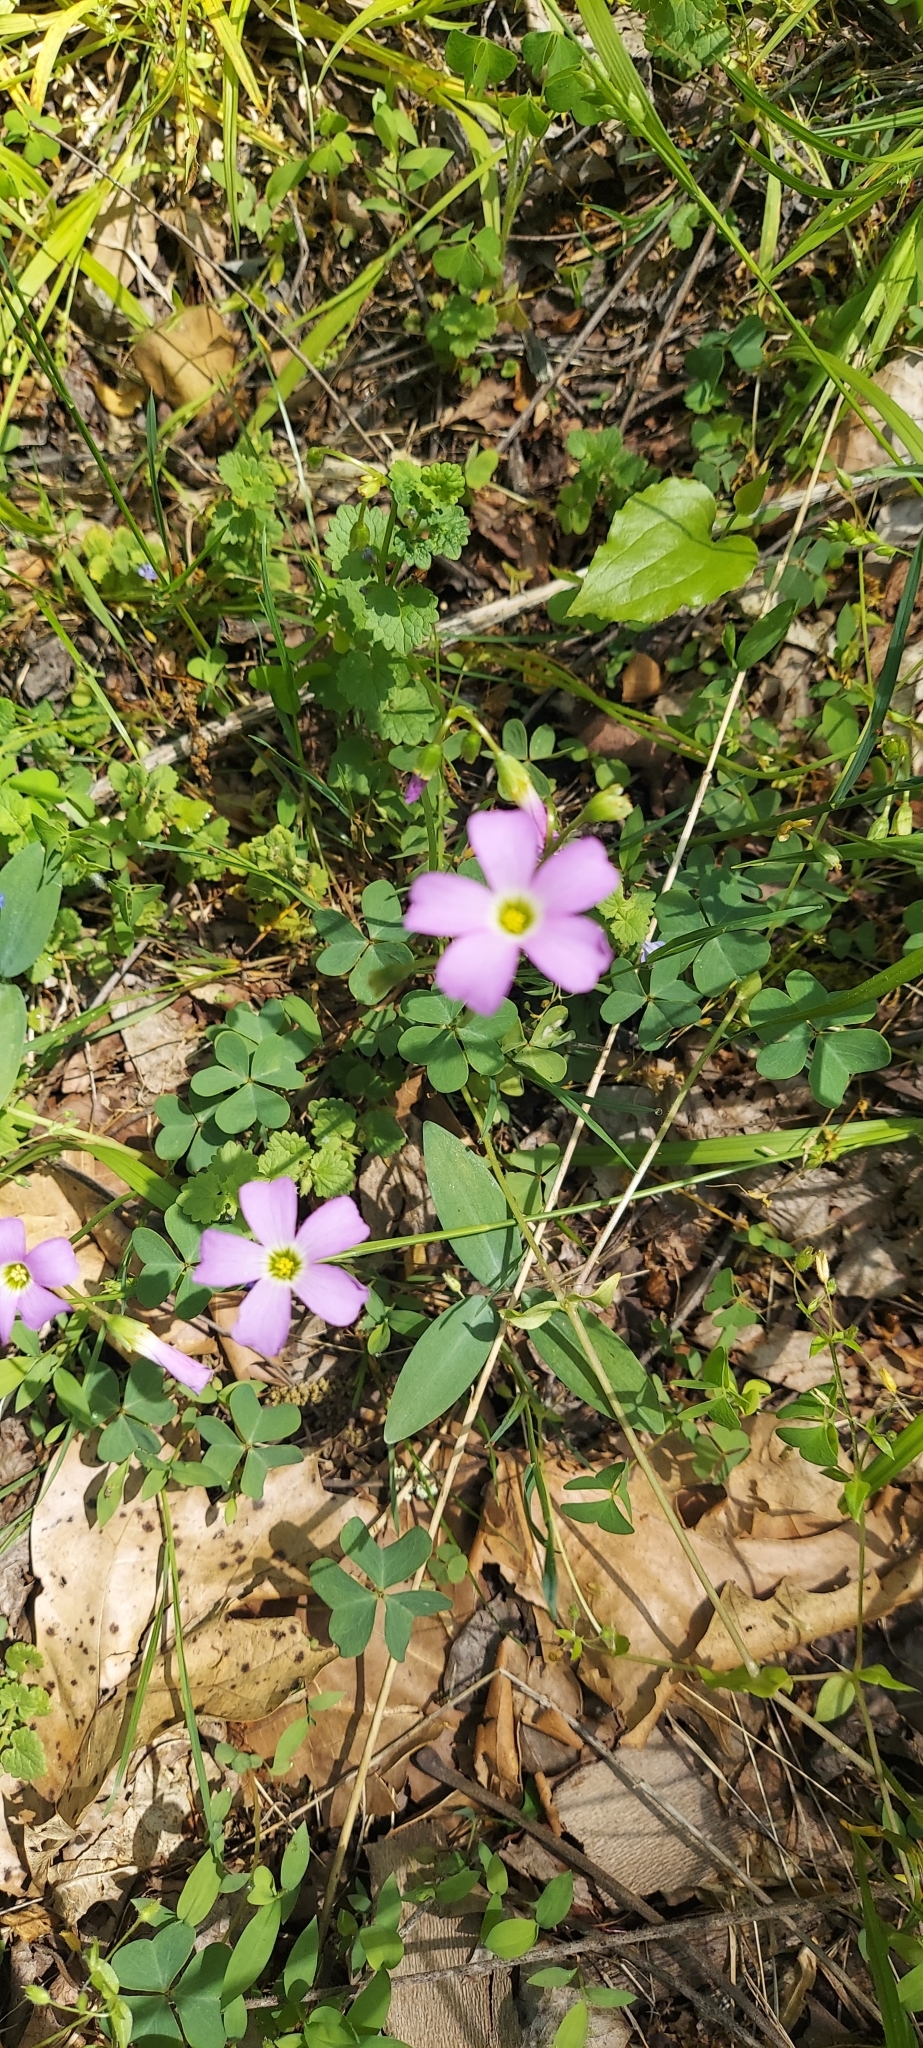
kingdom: Plantae
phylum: Tracheophyta
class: Magnoliopsida
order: Oxalidales
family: Oxalidaceae
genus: Oxalis
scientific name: Oxalis violacea
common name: Violet wood-sorrel
